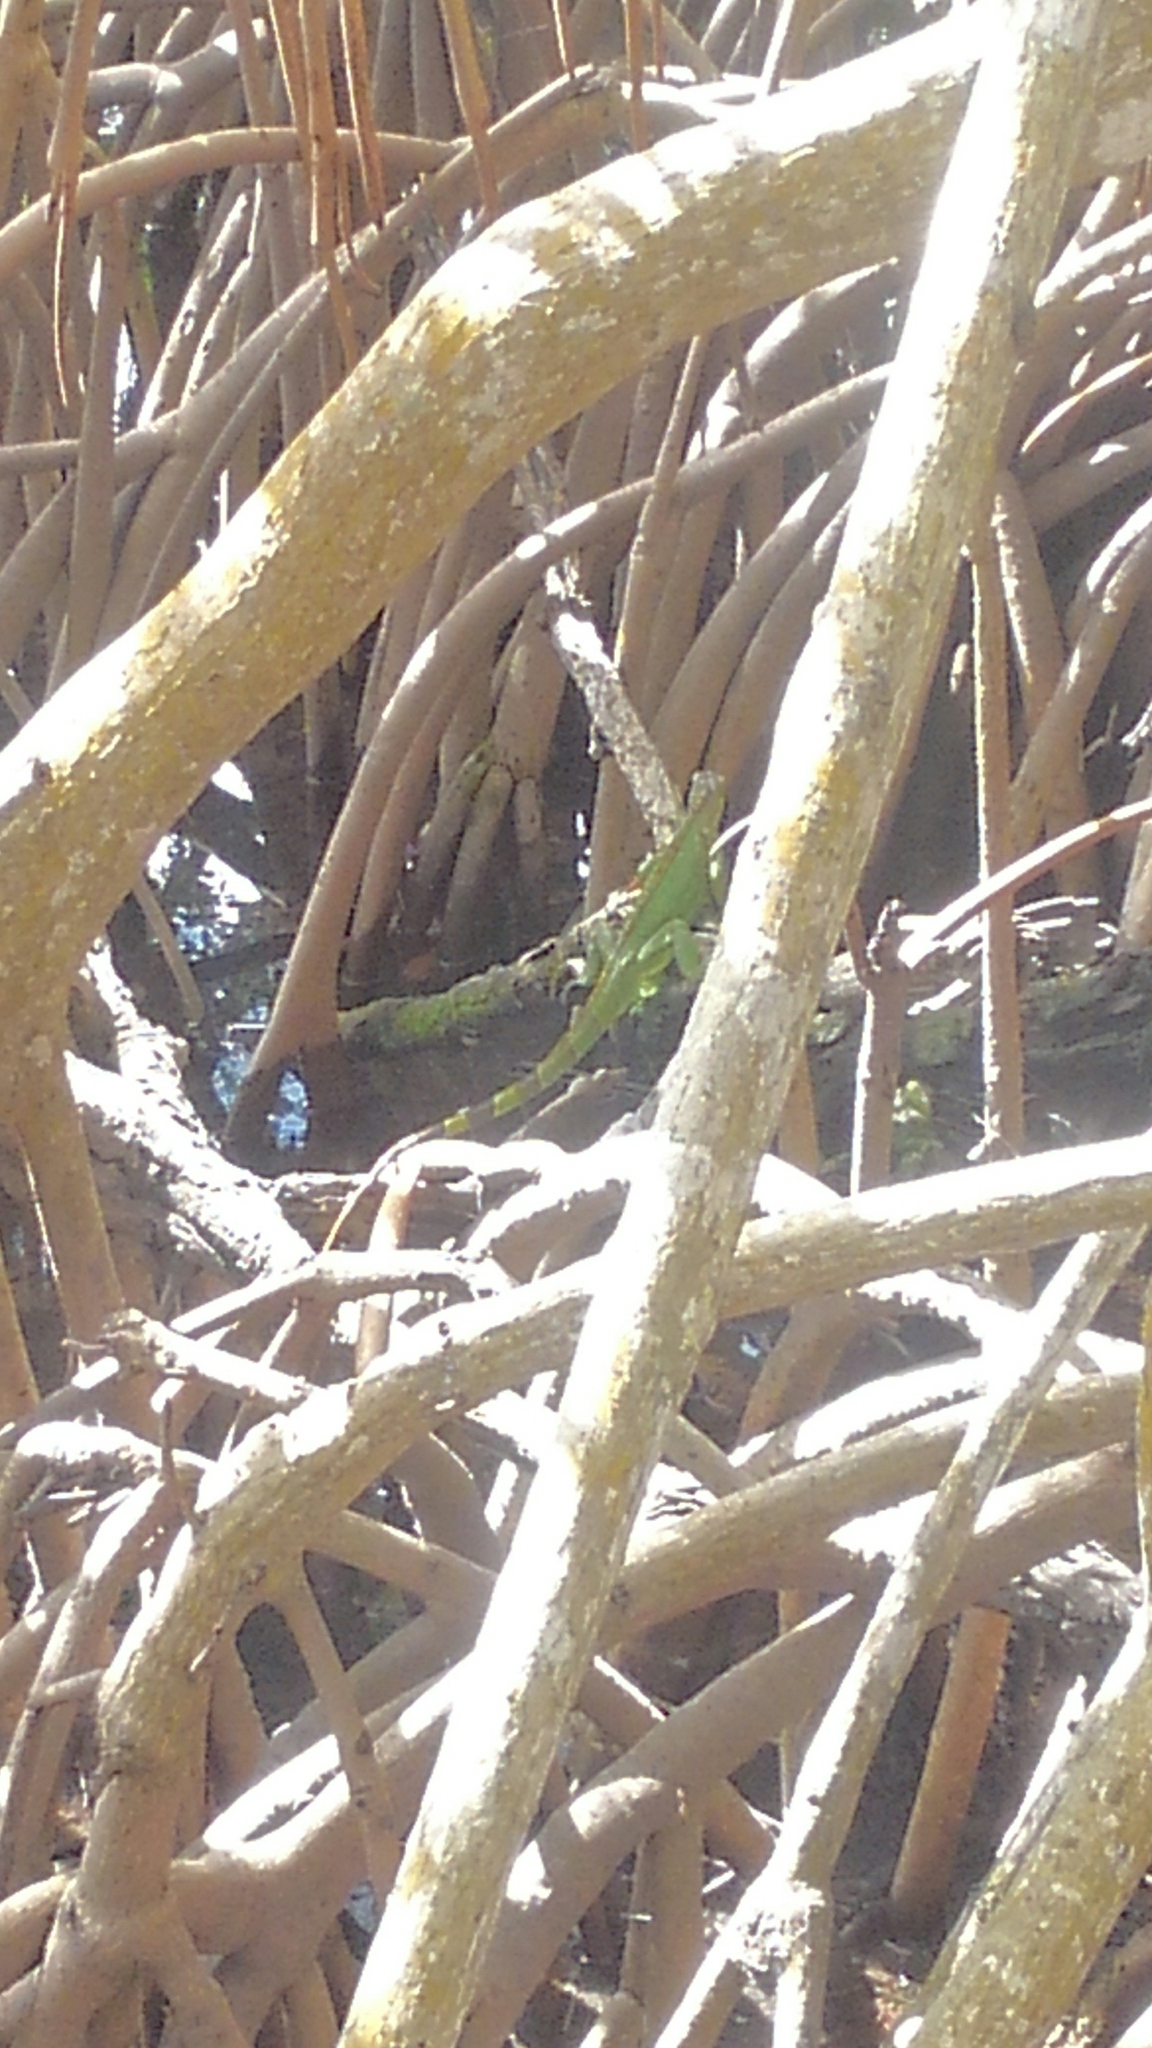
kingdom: Animalia
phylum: Chordata
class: Squamata
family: Iguanidae
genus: Iguana
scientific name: Iguana iguana
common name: Green iguana
